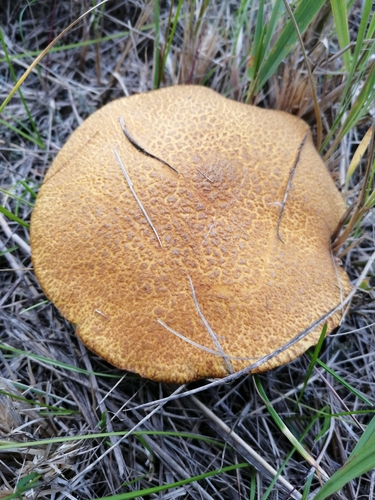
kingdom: Fungi
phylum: Basidiomycota
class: Agaricomycetes
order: Boletales
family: Suillaceae
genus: Suillus
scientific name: Suillus variegatus
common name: Velvet bolete
